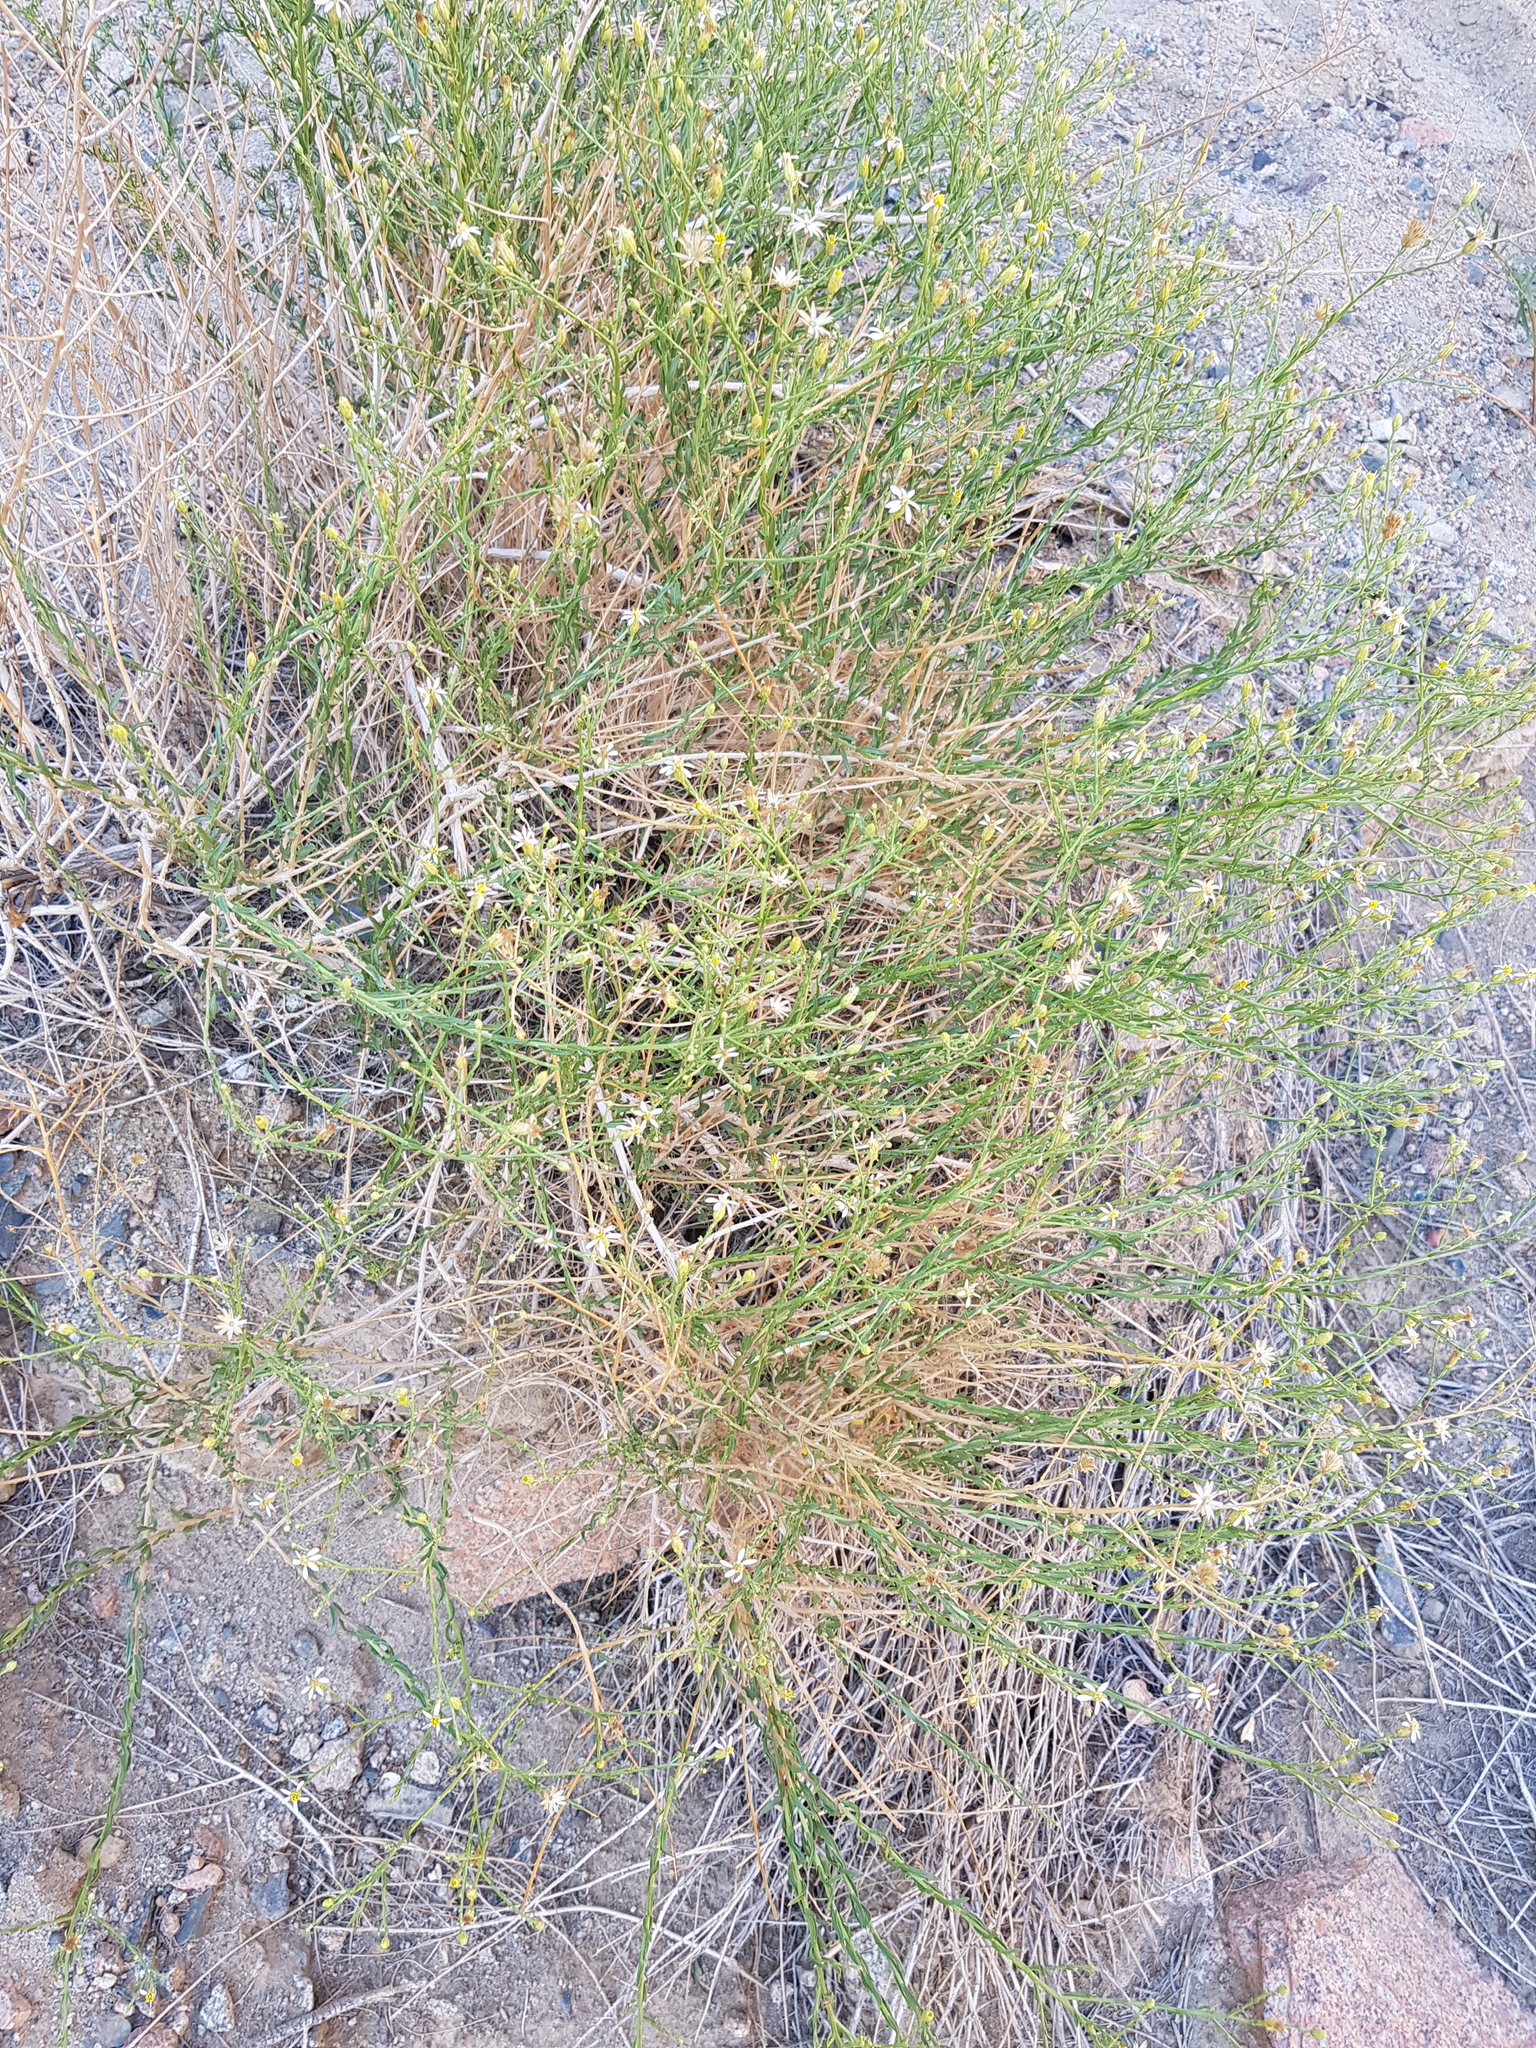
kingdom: Plantae
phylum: Tracheophyta
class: Magnoliopsida
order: Asterales
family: Asteraceae
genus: Asterothamnus
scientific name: Asterothamnus centraliasiaticus
